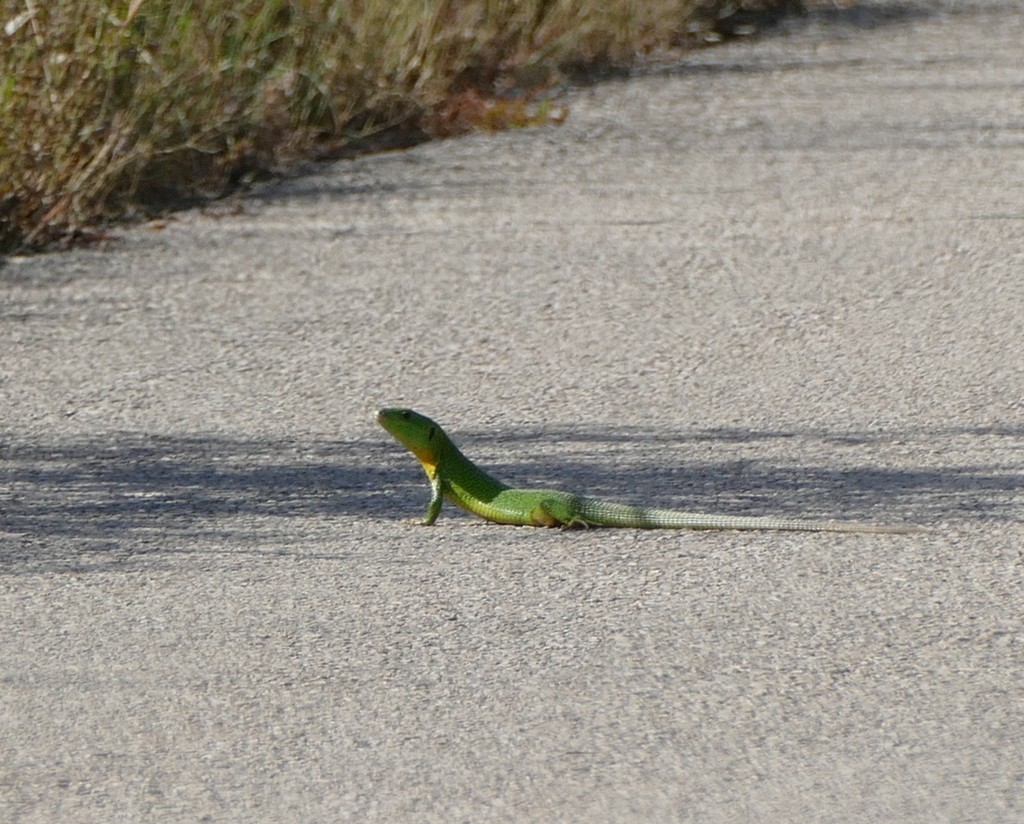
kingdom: Animalia
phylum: Chordata
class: Squamata
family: Lacertidae
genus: Lacerta
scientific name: Lacerta trilineata
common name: Balkan green lizard
